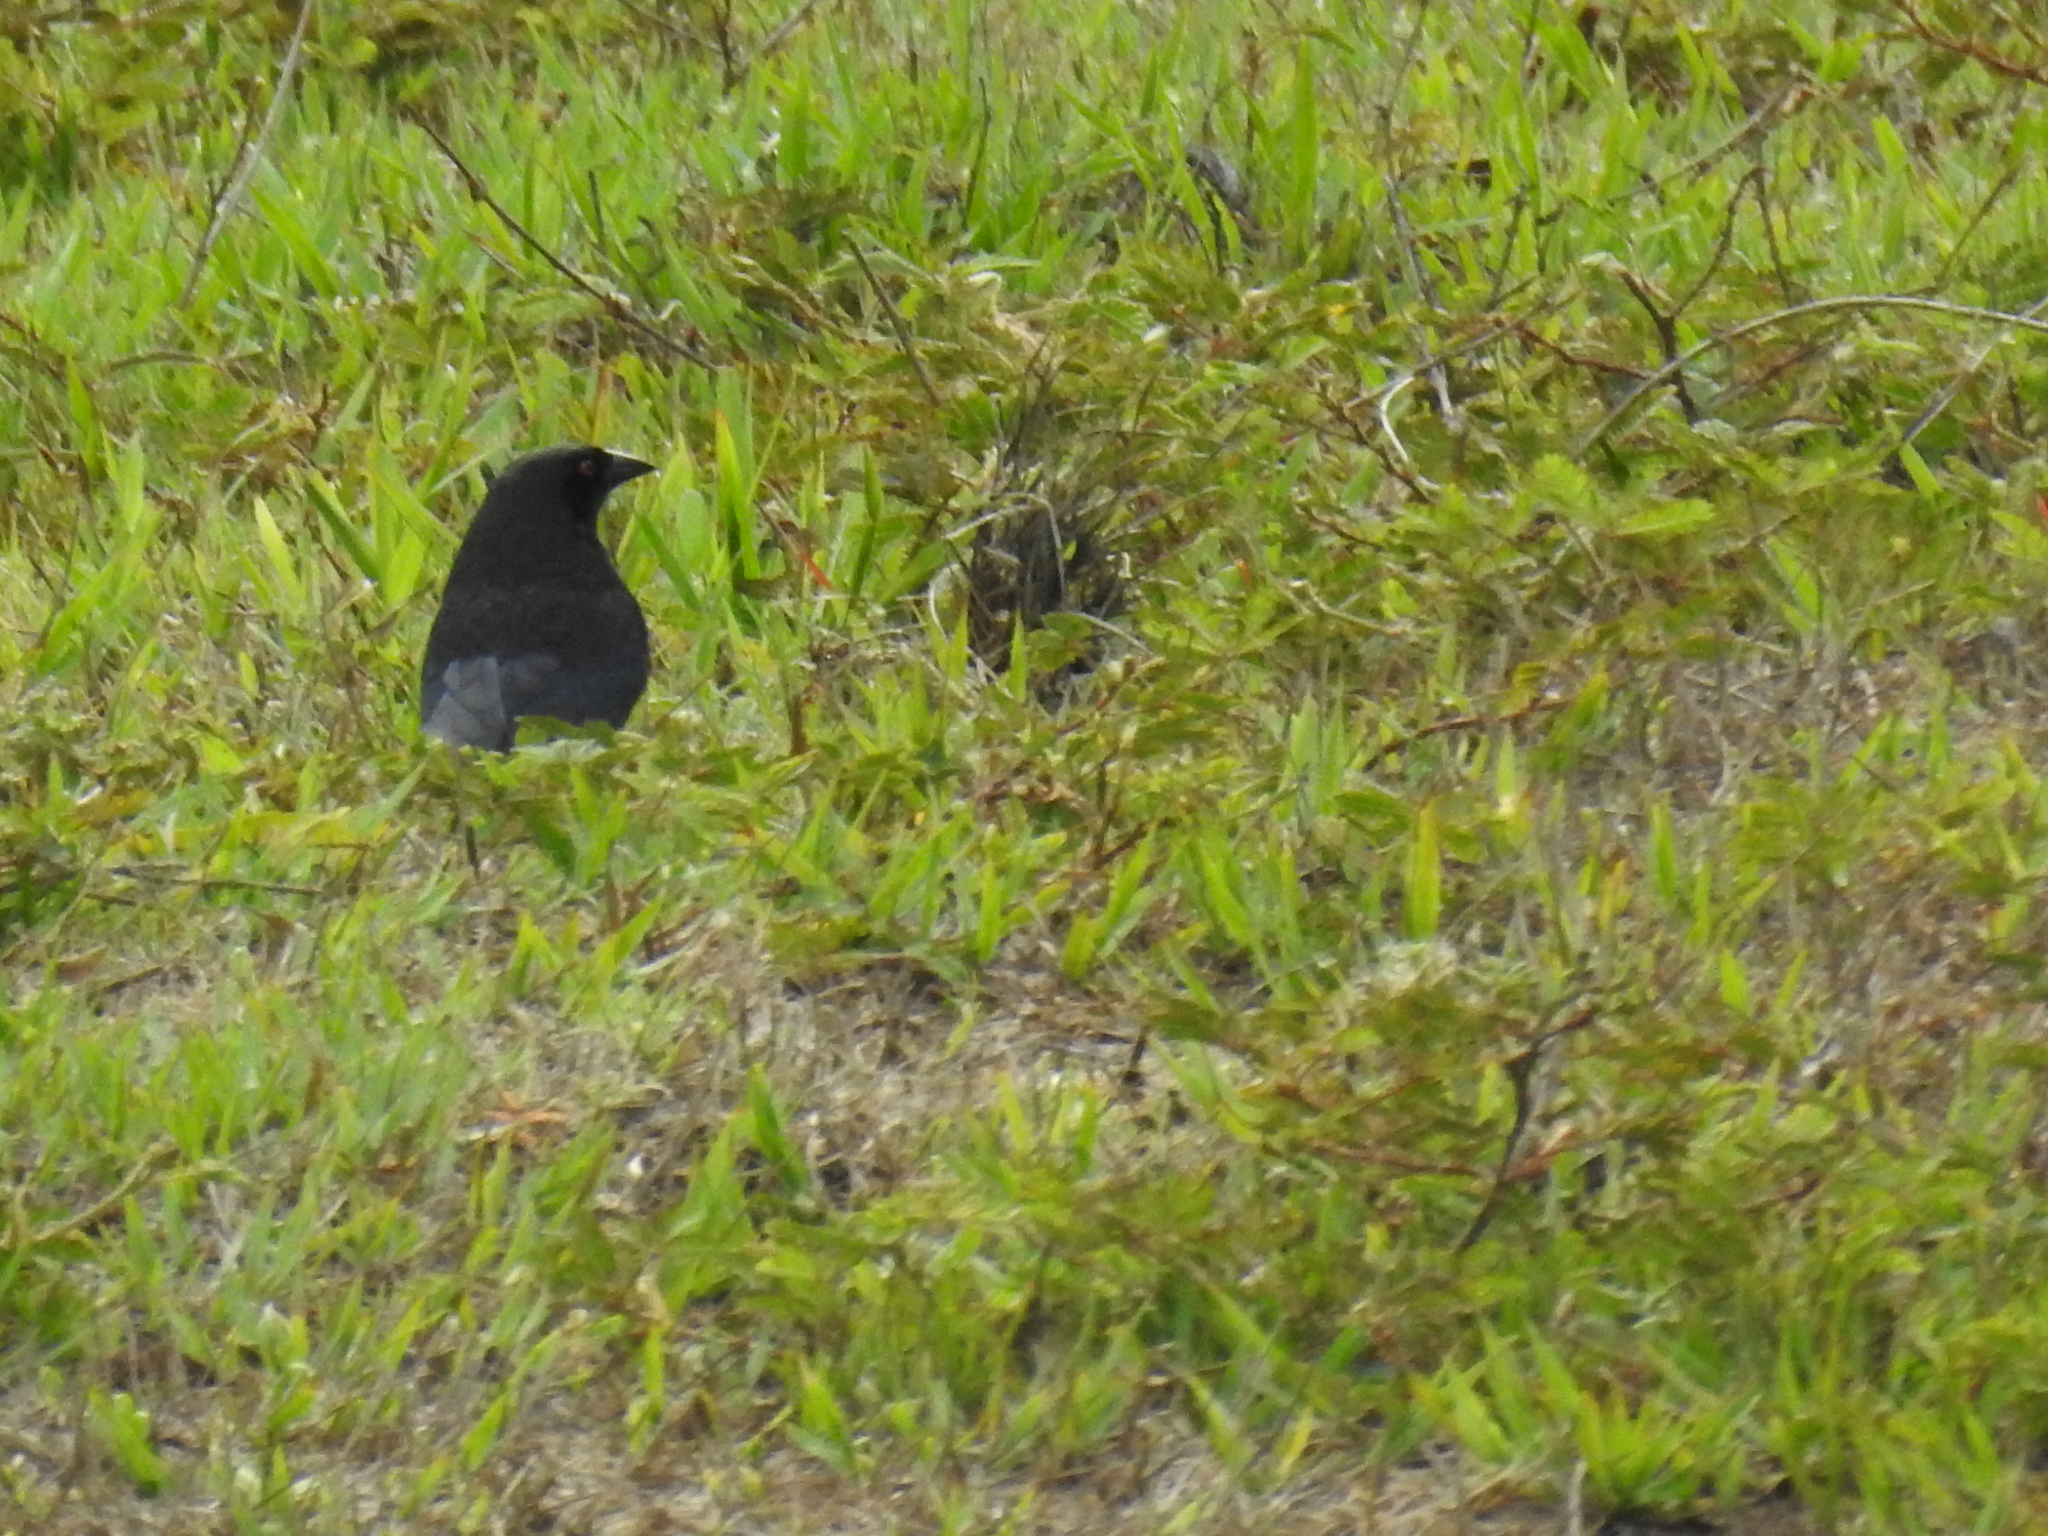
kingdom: Animalia
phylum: Chordata
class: Aves
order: Passeriformes
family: Icteridae
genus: Molothrus
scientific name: Molothrus aeneus
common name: Bronzed cowbird
